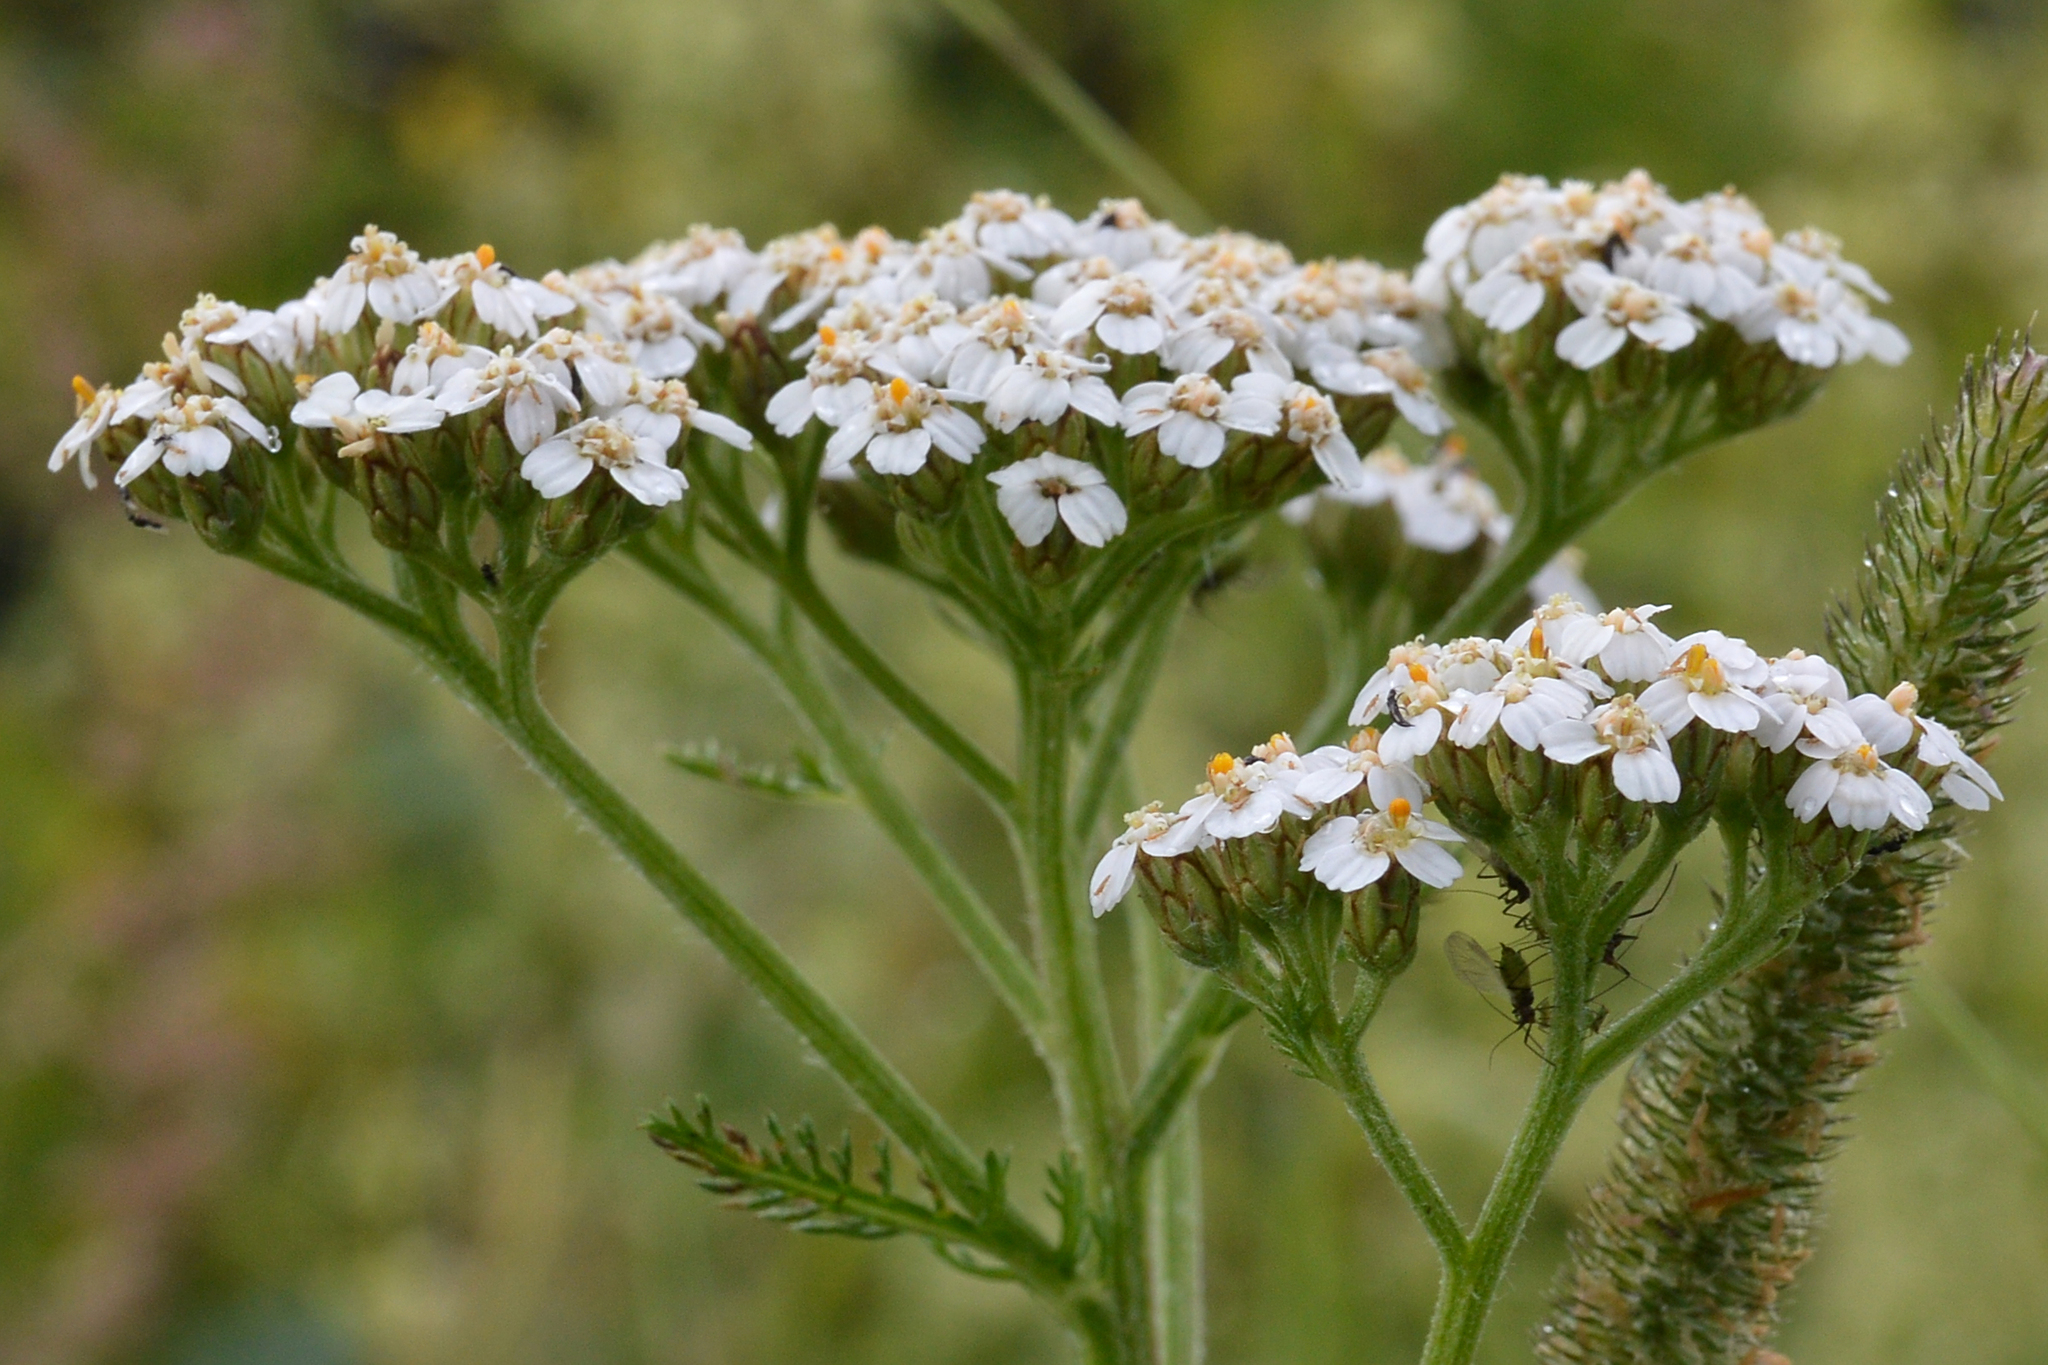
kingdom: Plantae
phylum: Tracheophyta
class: Magnoliopsida
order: Asterales
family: Asteraceae
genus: Achillea
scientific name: Achillea millefolium
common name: Yarrow
